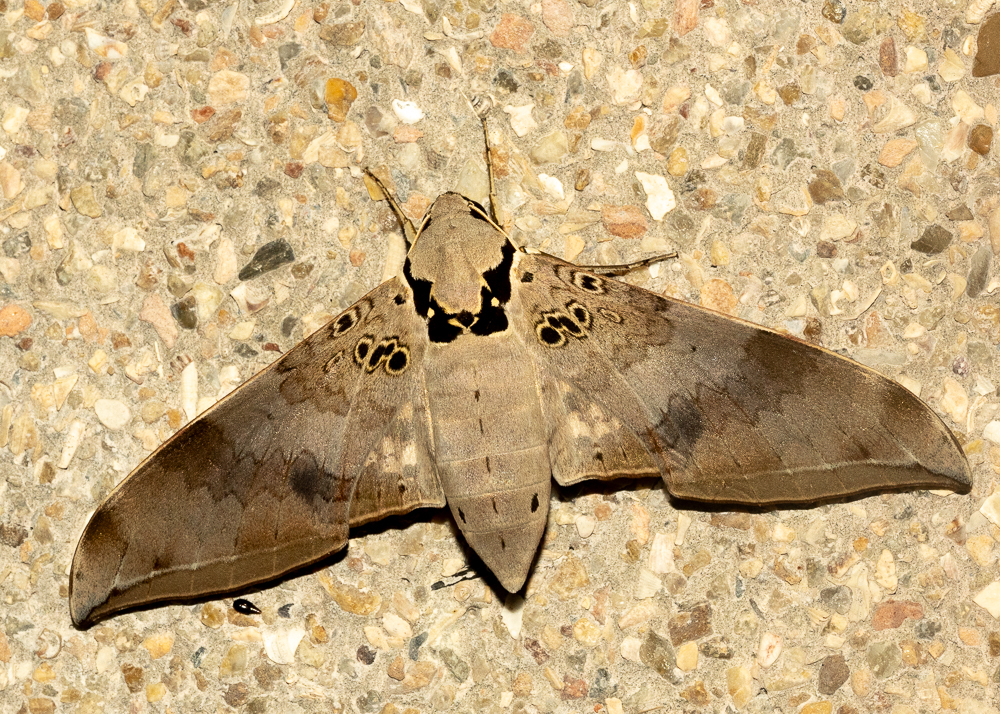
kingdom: Animalia
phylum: Arthropoda
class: Insecta
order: Lepidoptera
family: Sphingidae
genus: Ambulyx
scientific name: Ambulyx canescens
